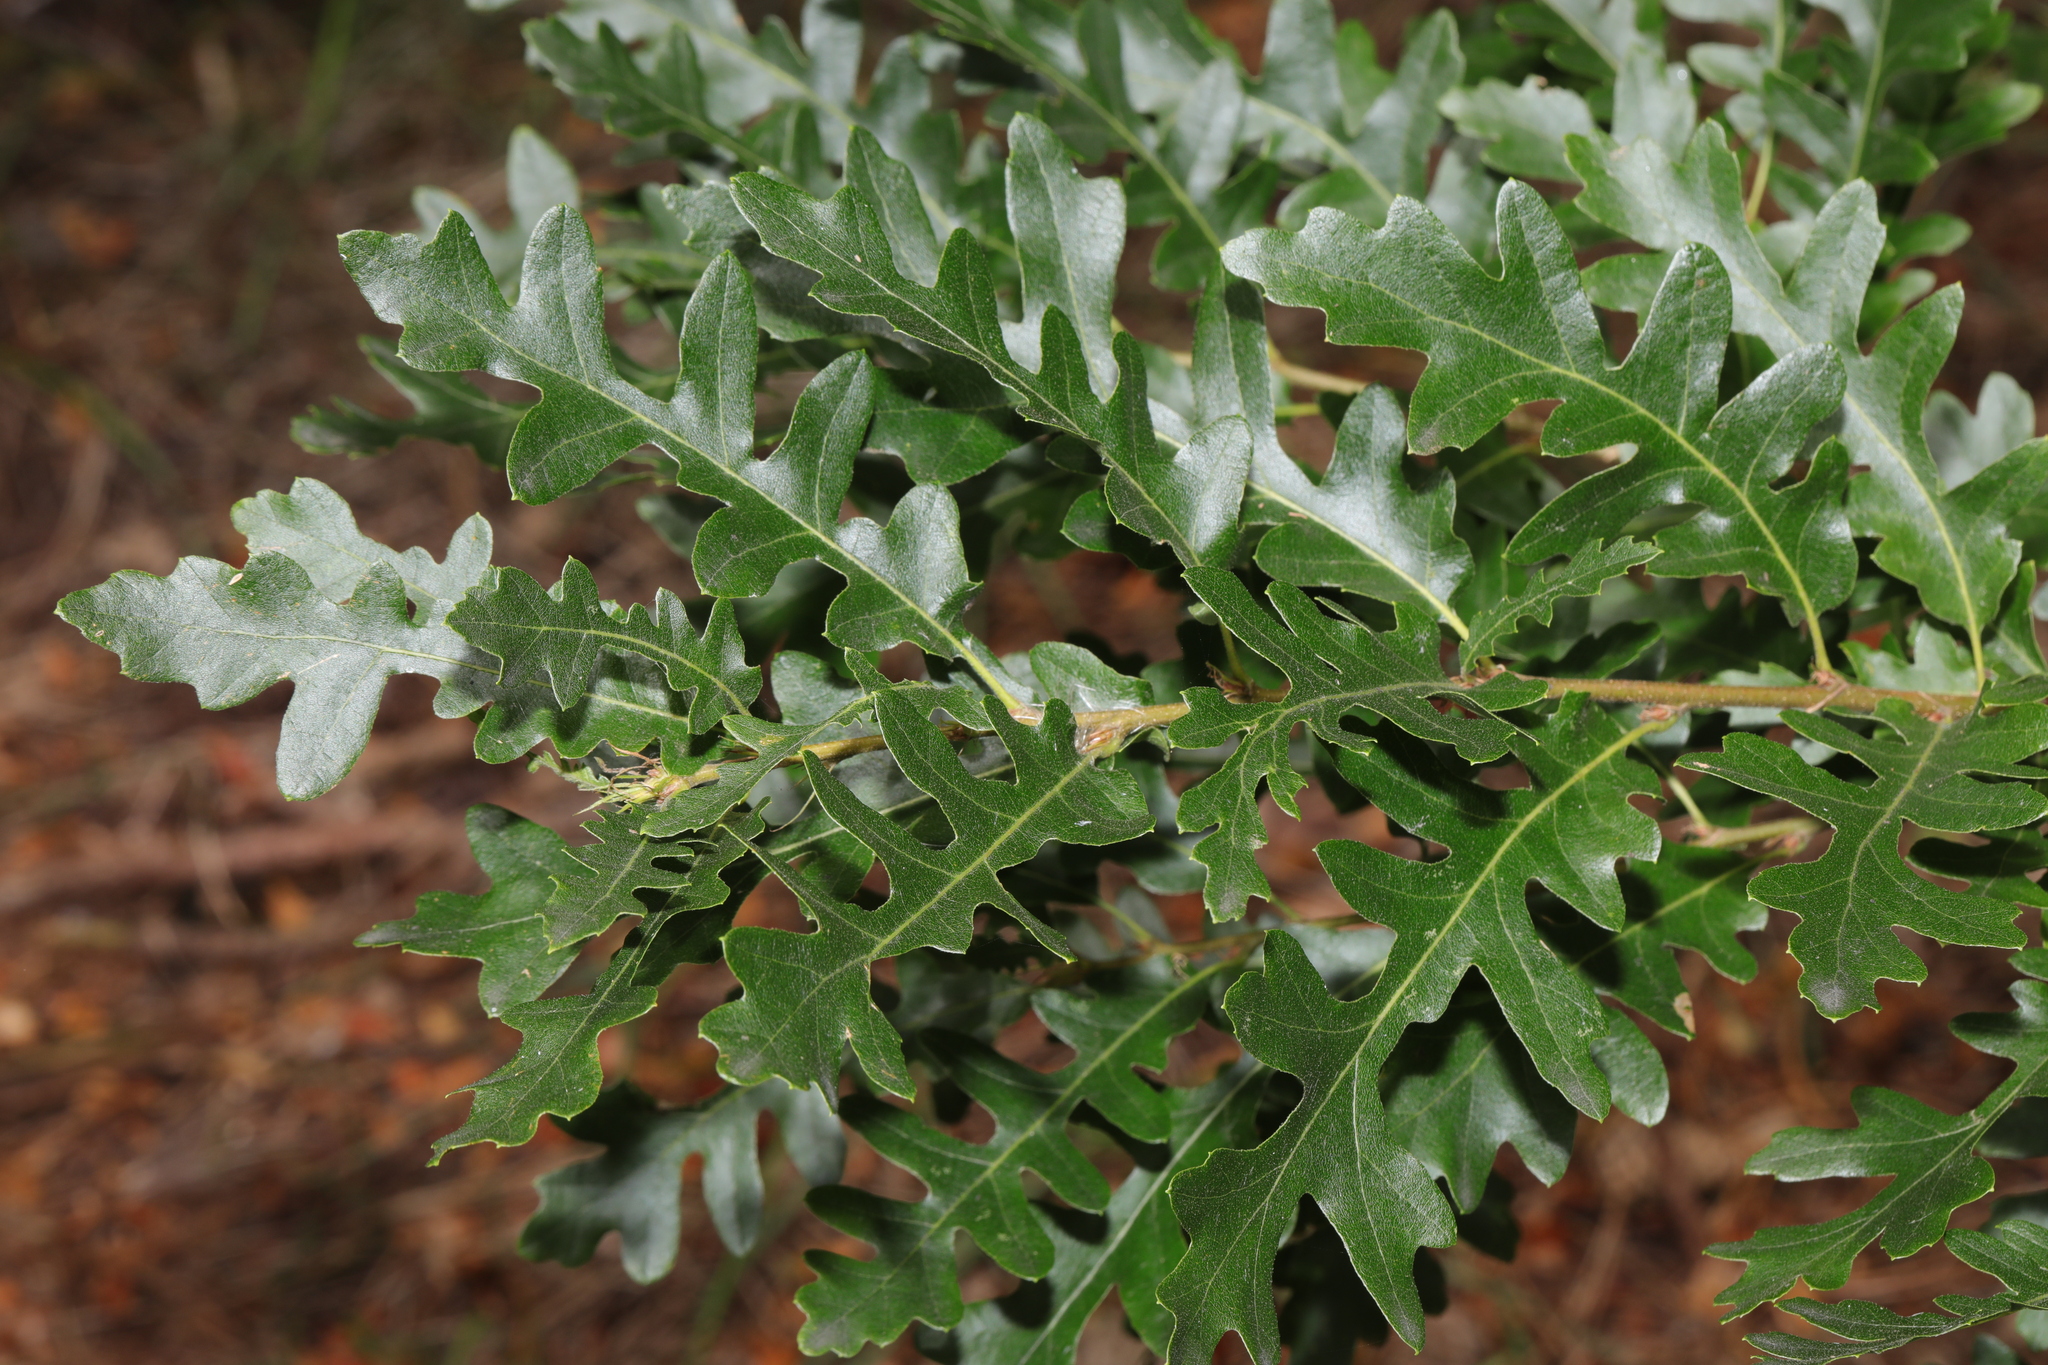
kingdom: Plantae
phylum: Tracheophyta
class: Magnoliopsida
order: Fagales
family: Fagaceae
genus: Quercus
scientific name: Quercus cerris
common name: Turkey oak
